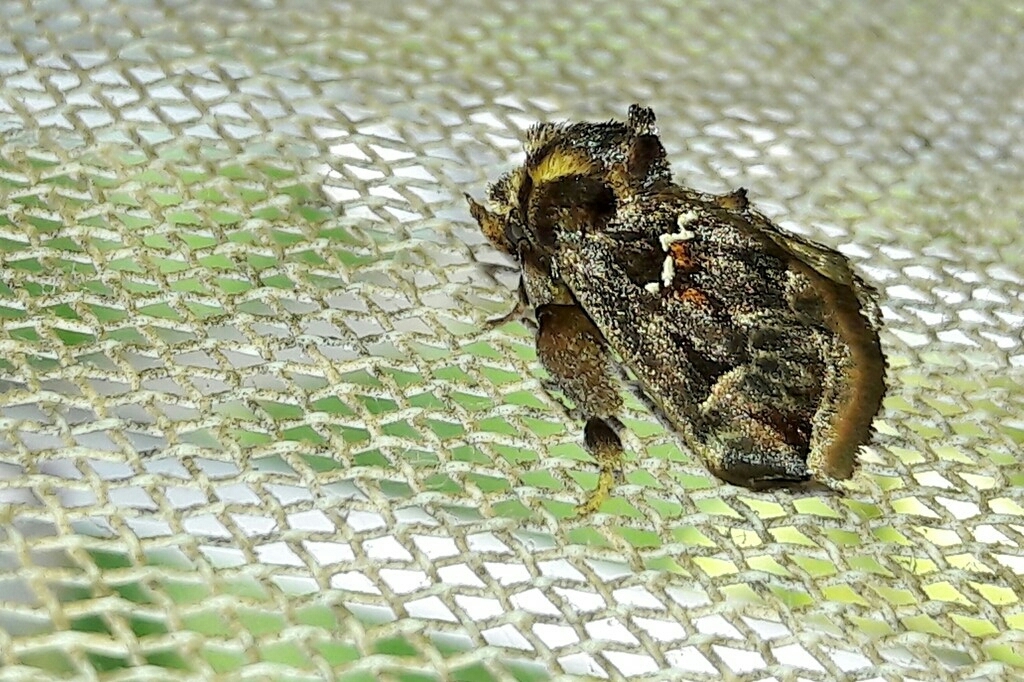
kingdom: Animalia
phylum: Arthropoda
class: Insecta
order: Lepidoptera
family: Limacodidae
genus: Semyra
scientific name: Semyra
